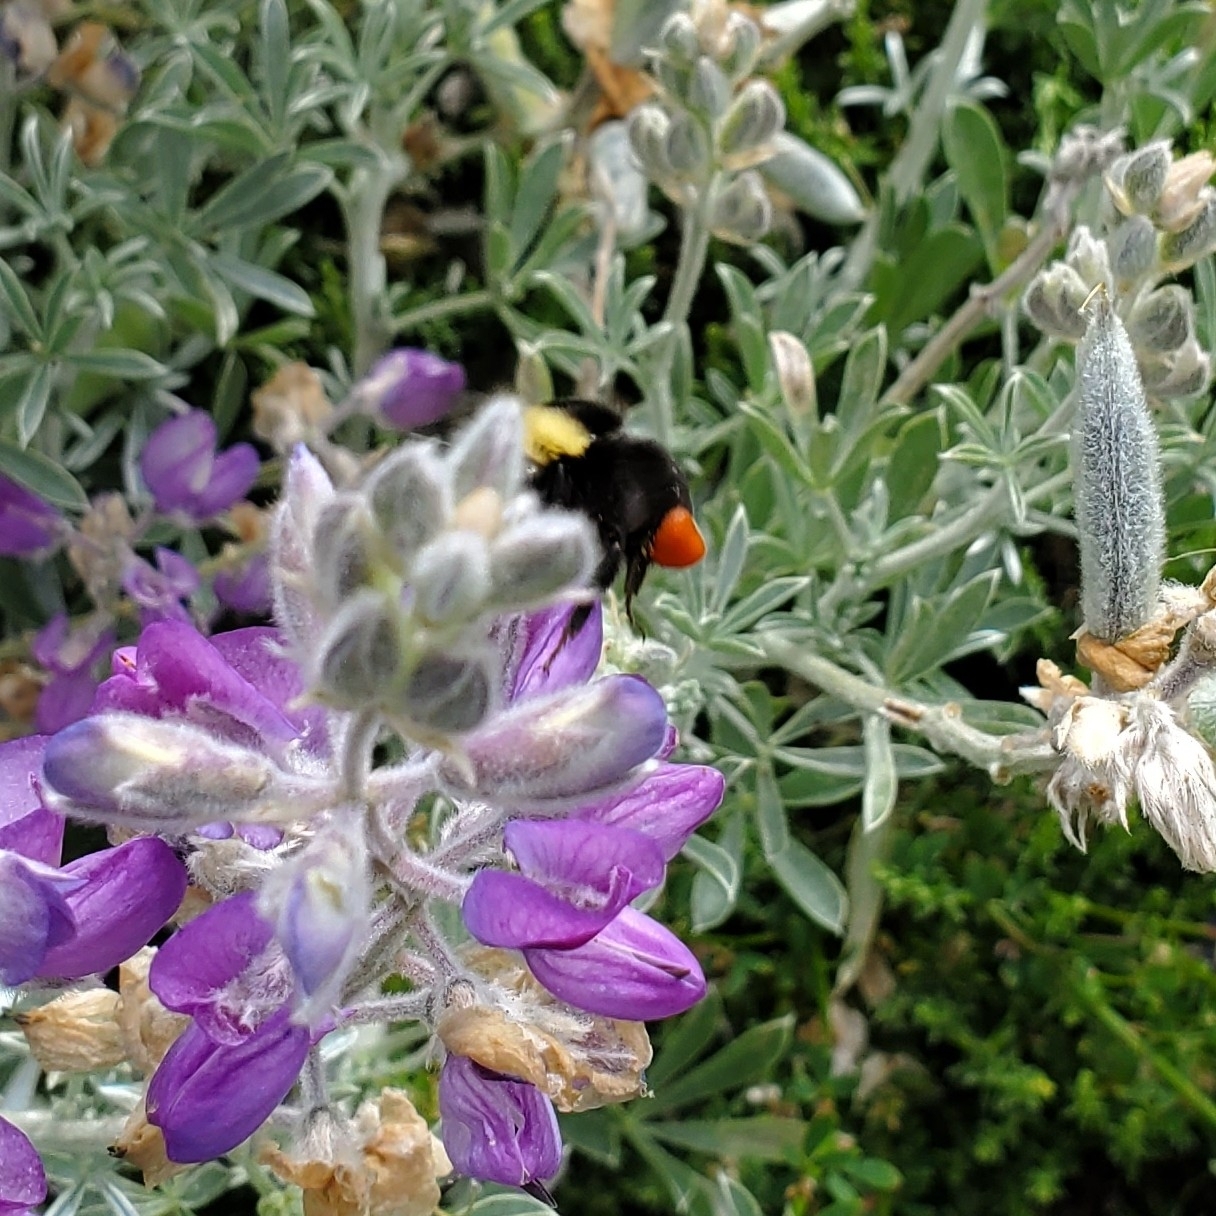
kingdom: Animalia
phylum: Arthropoda
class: Insecta
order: Hymenoptera
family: Apidae
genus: Pyrobombus
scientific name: Pyrobombus
